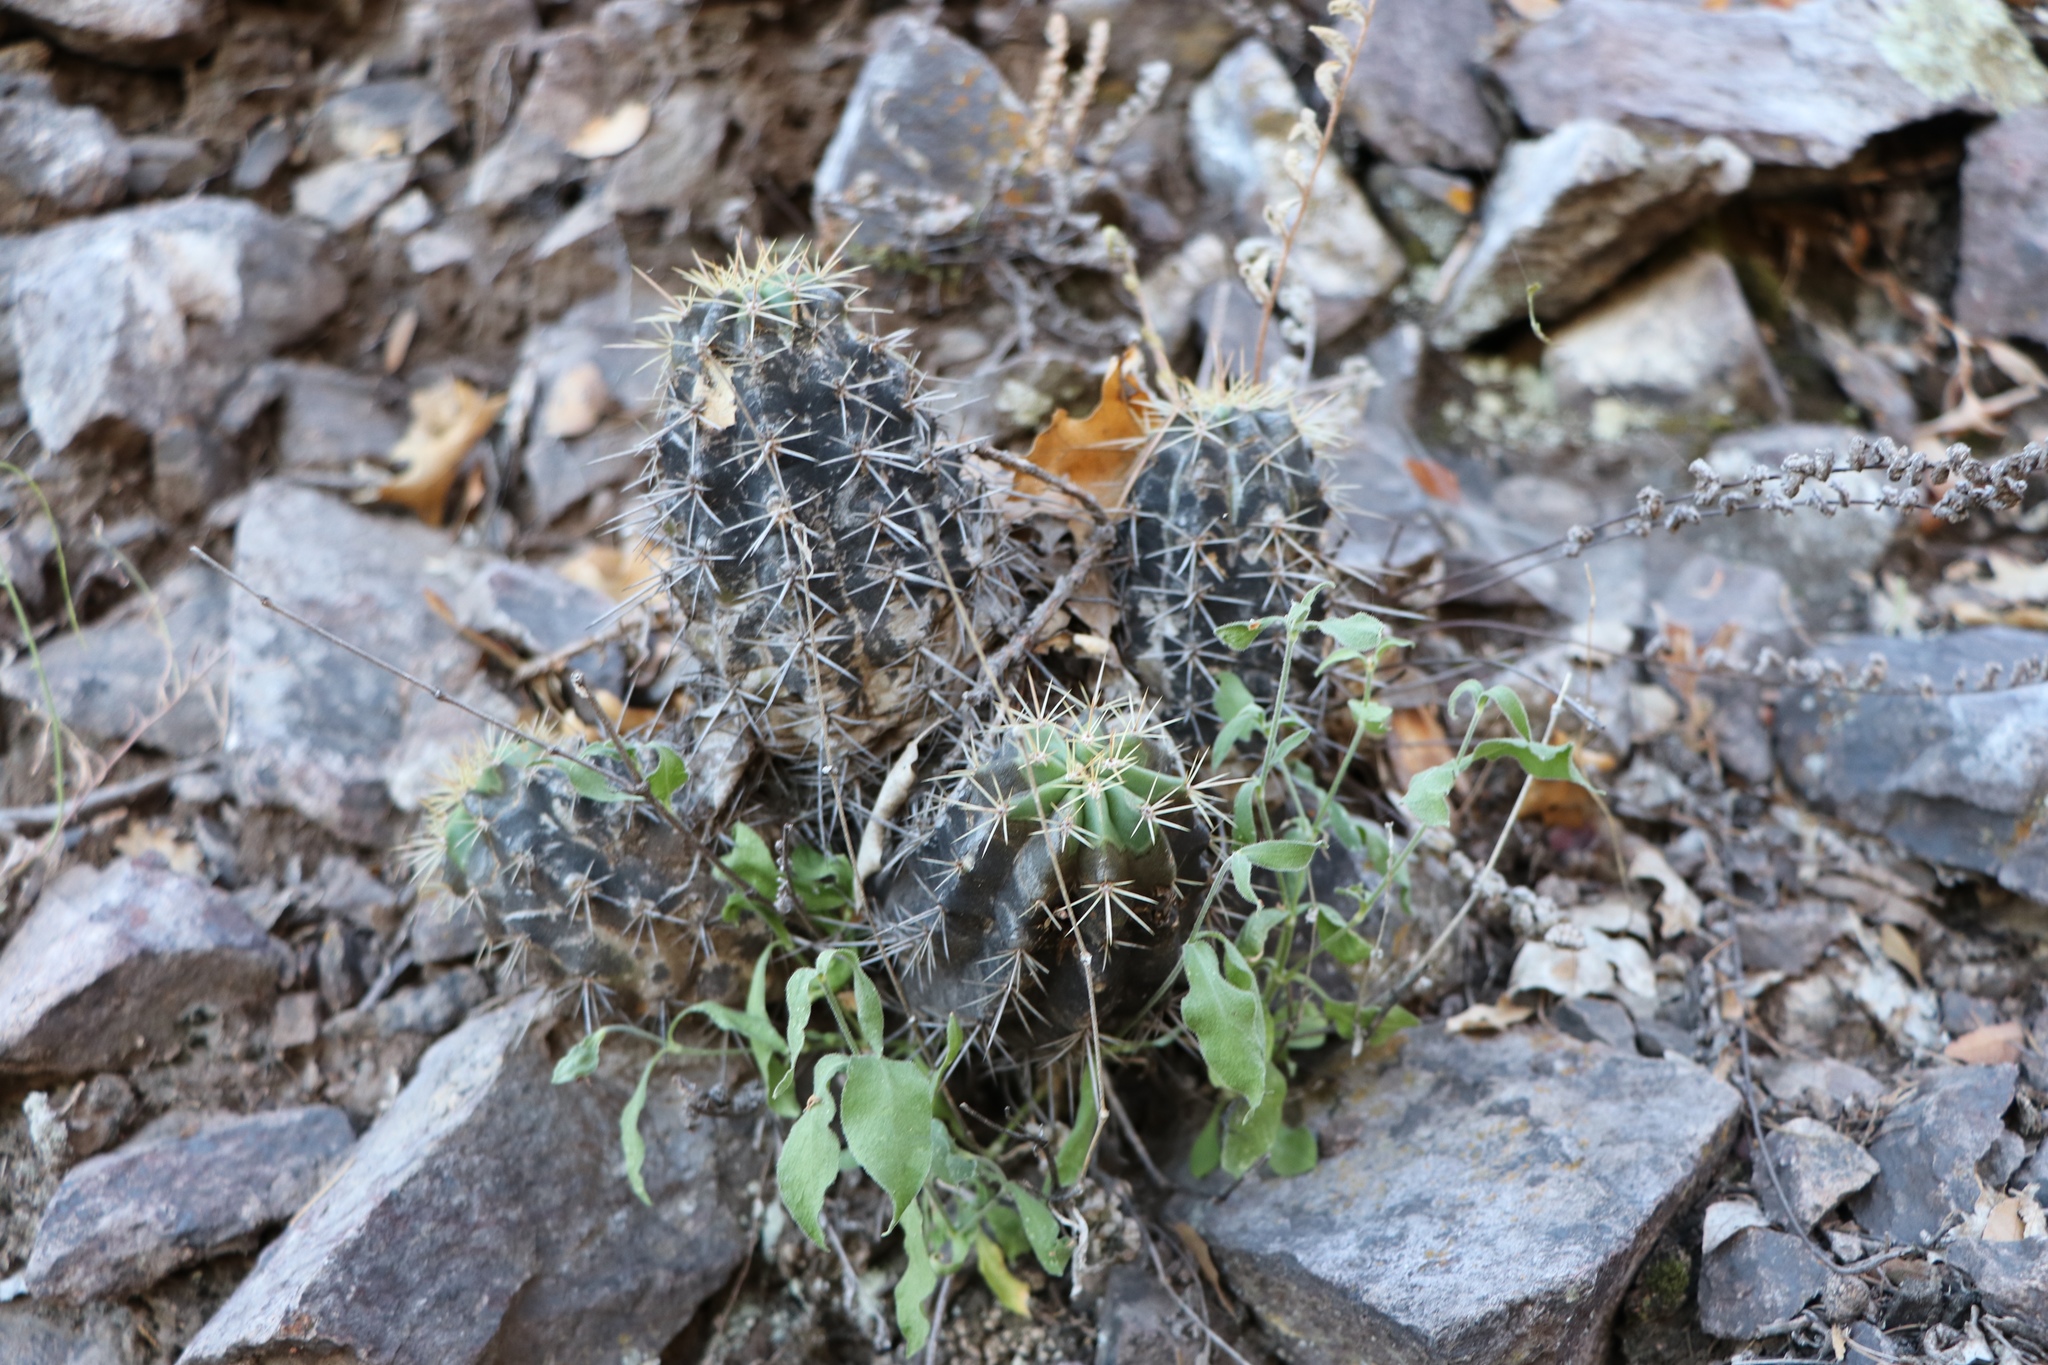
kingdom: Plantae
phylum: Tracheophyta
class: Magnoliopsida
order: Caryophyllales
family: Cactaceae
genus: Echinocereus
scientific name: Echinocereus coccineus
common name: Scarlet hedgehog cactus
